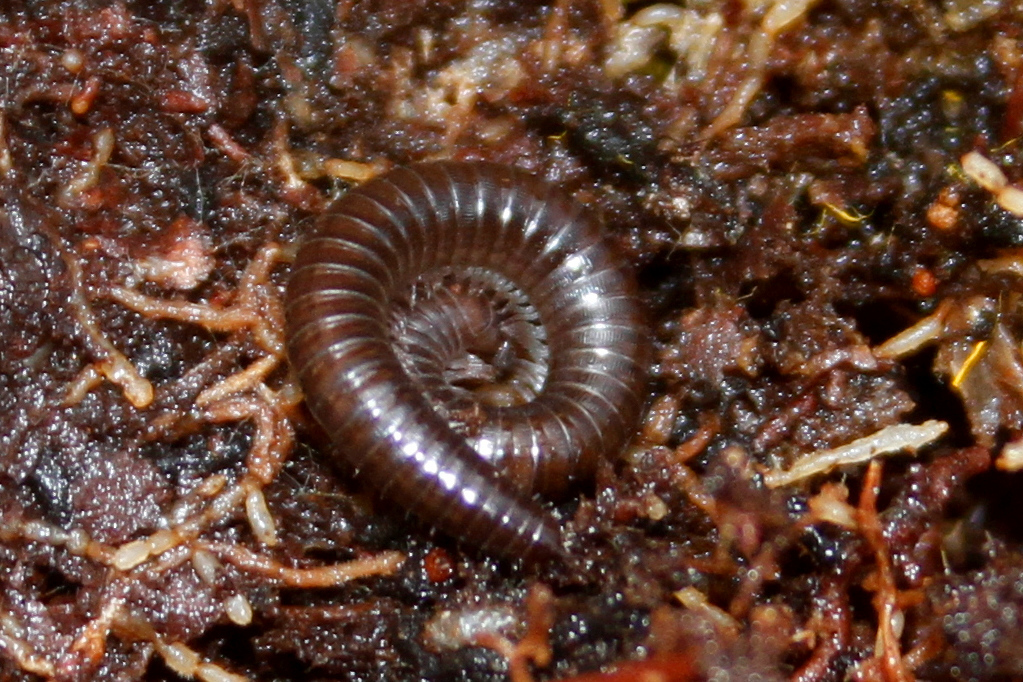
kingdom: Animalia
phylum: Arthropoda
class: Diplopoda
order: Polydesmida
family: Paradoxosomatidae
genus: Oxidus
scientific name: Oxidus gracilis
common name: Greenhouse millipede
